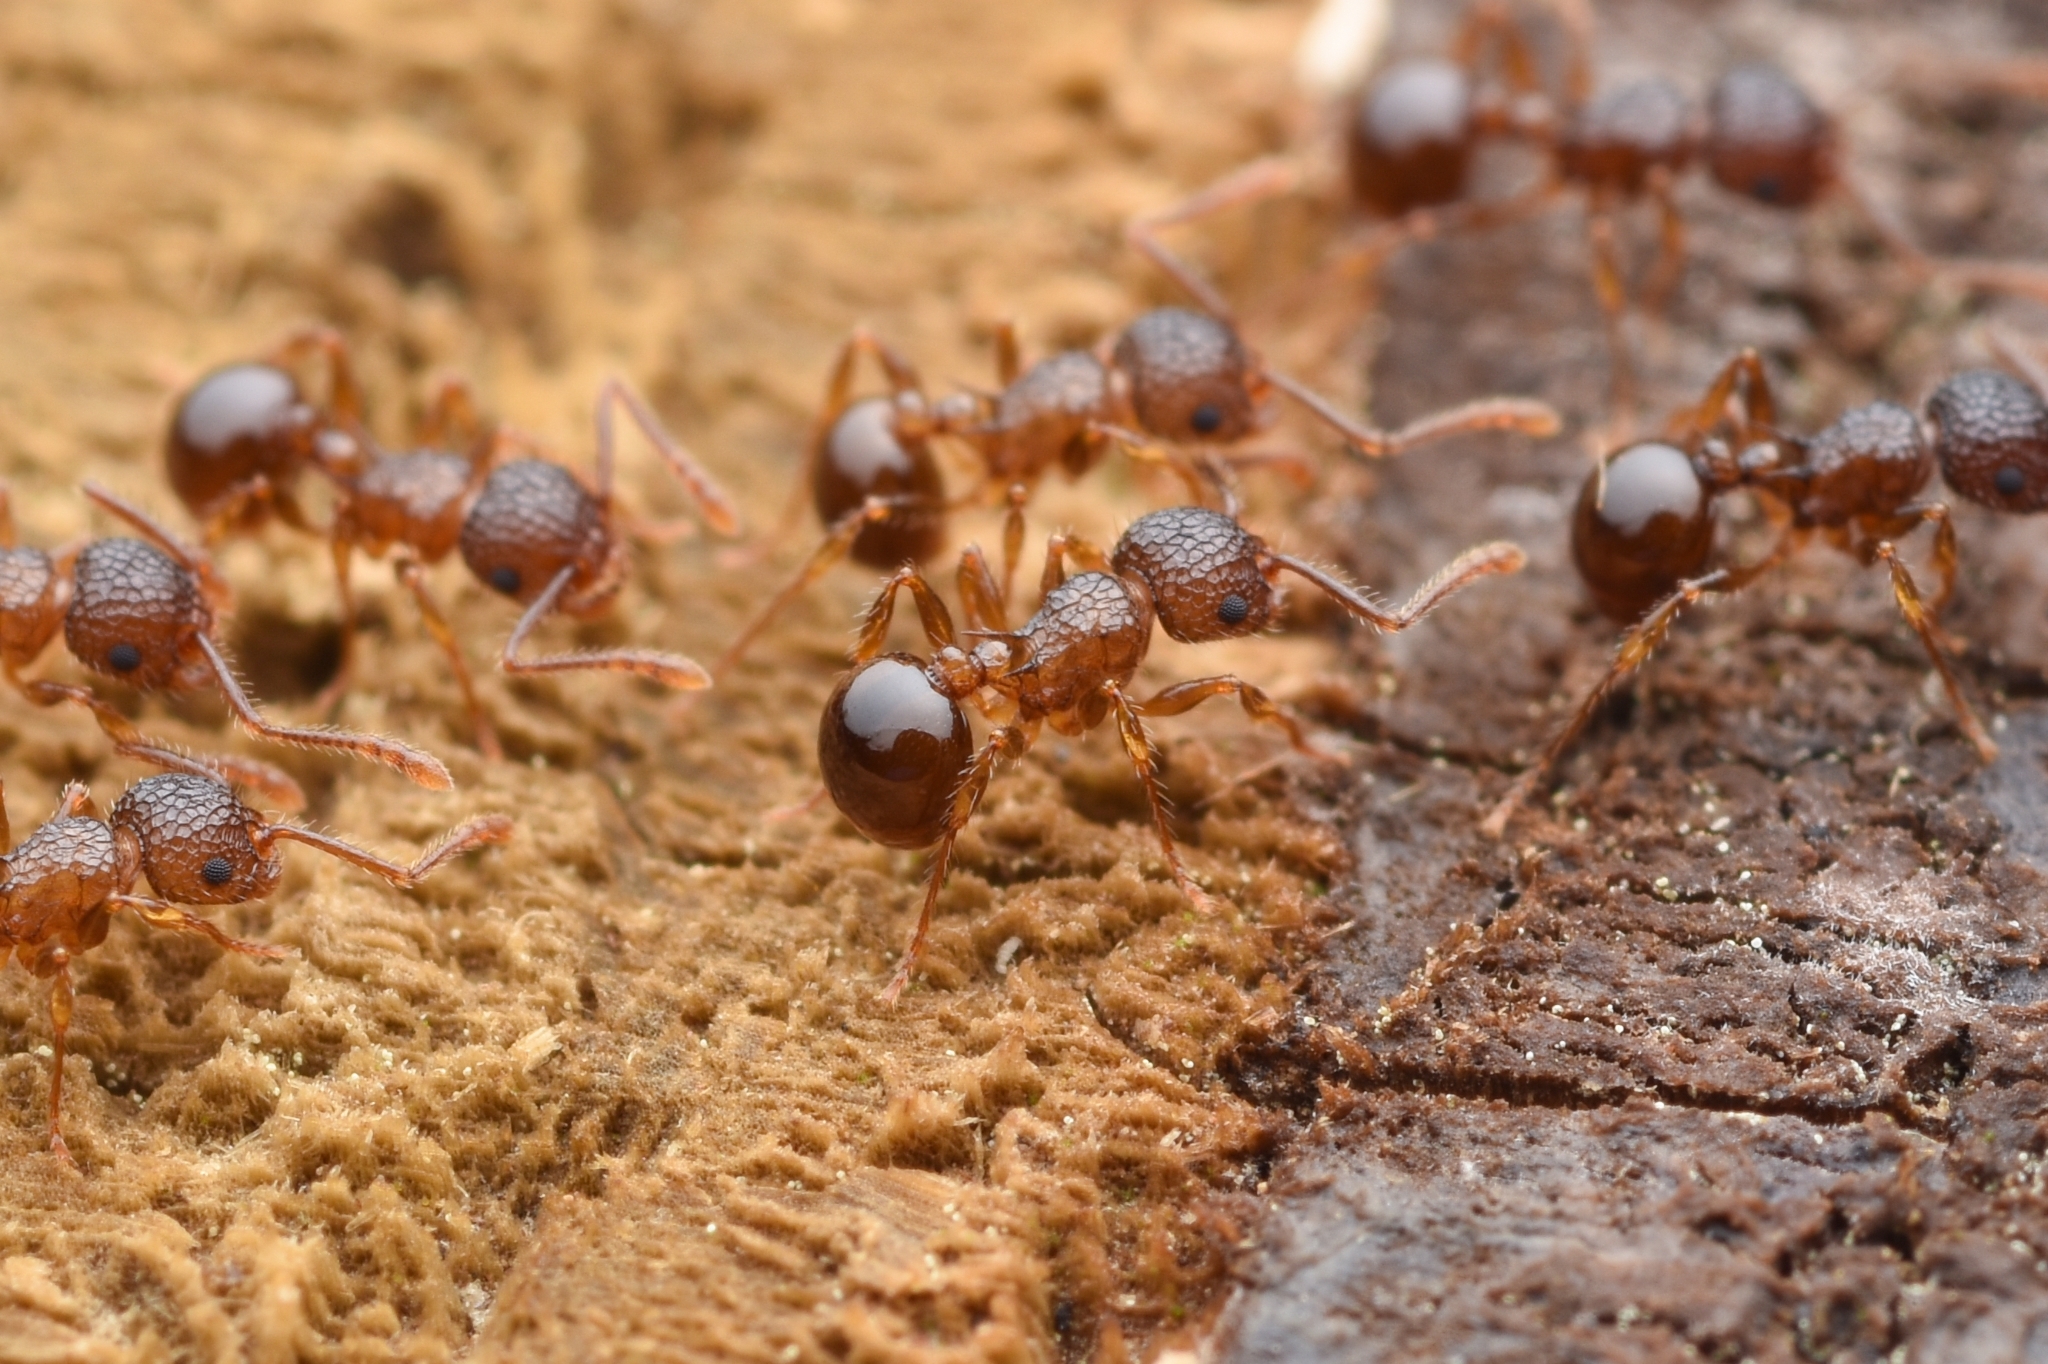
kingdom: Animalia
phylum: Arthropoda
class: Insecta
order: Hymenoptera
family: Formicidae
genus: Pristomyrmex
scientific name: Pristomyrmex punctatus
